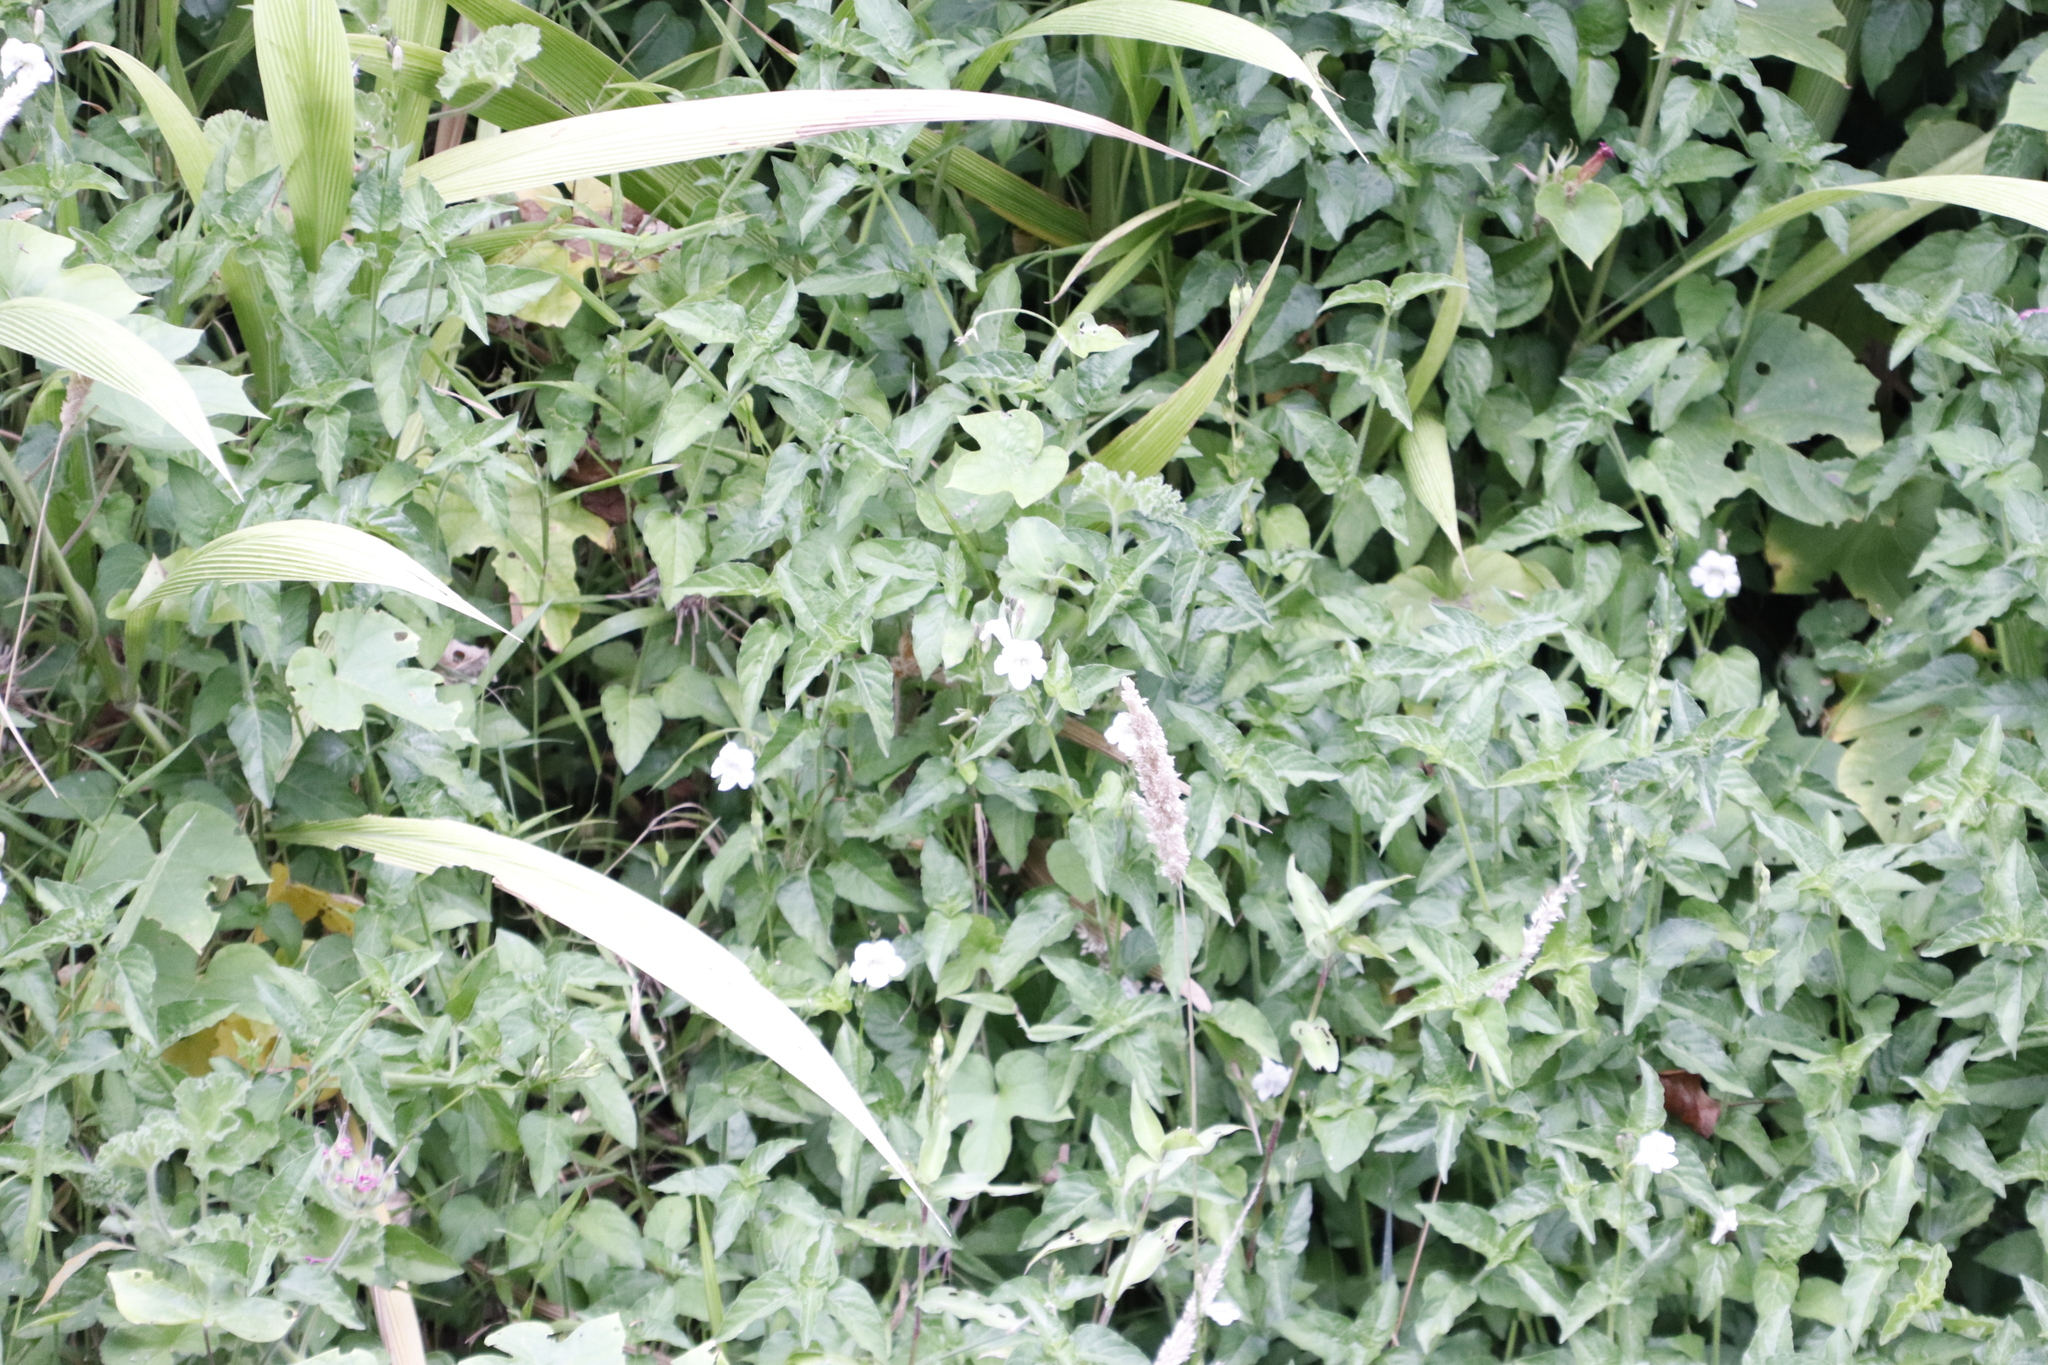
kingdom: Plantae
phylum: Tracheophyta
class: Magnoliopsida
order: Lamiales
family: Acanthaceae
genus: Asystasia
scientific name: Asystasia intrusa
